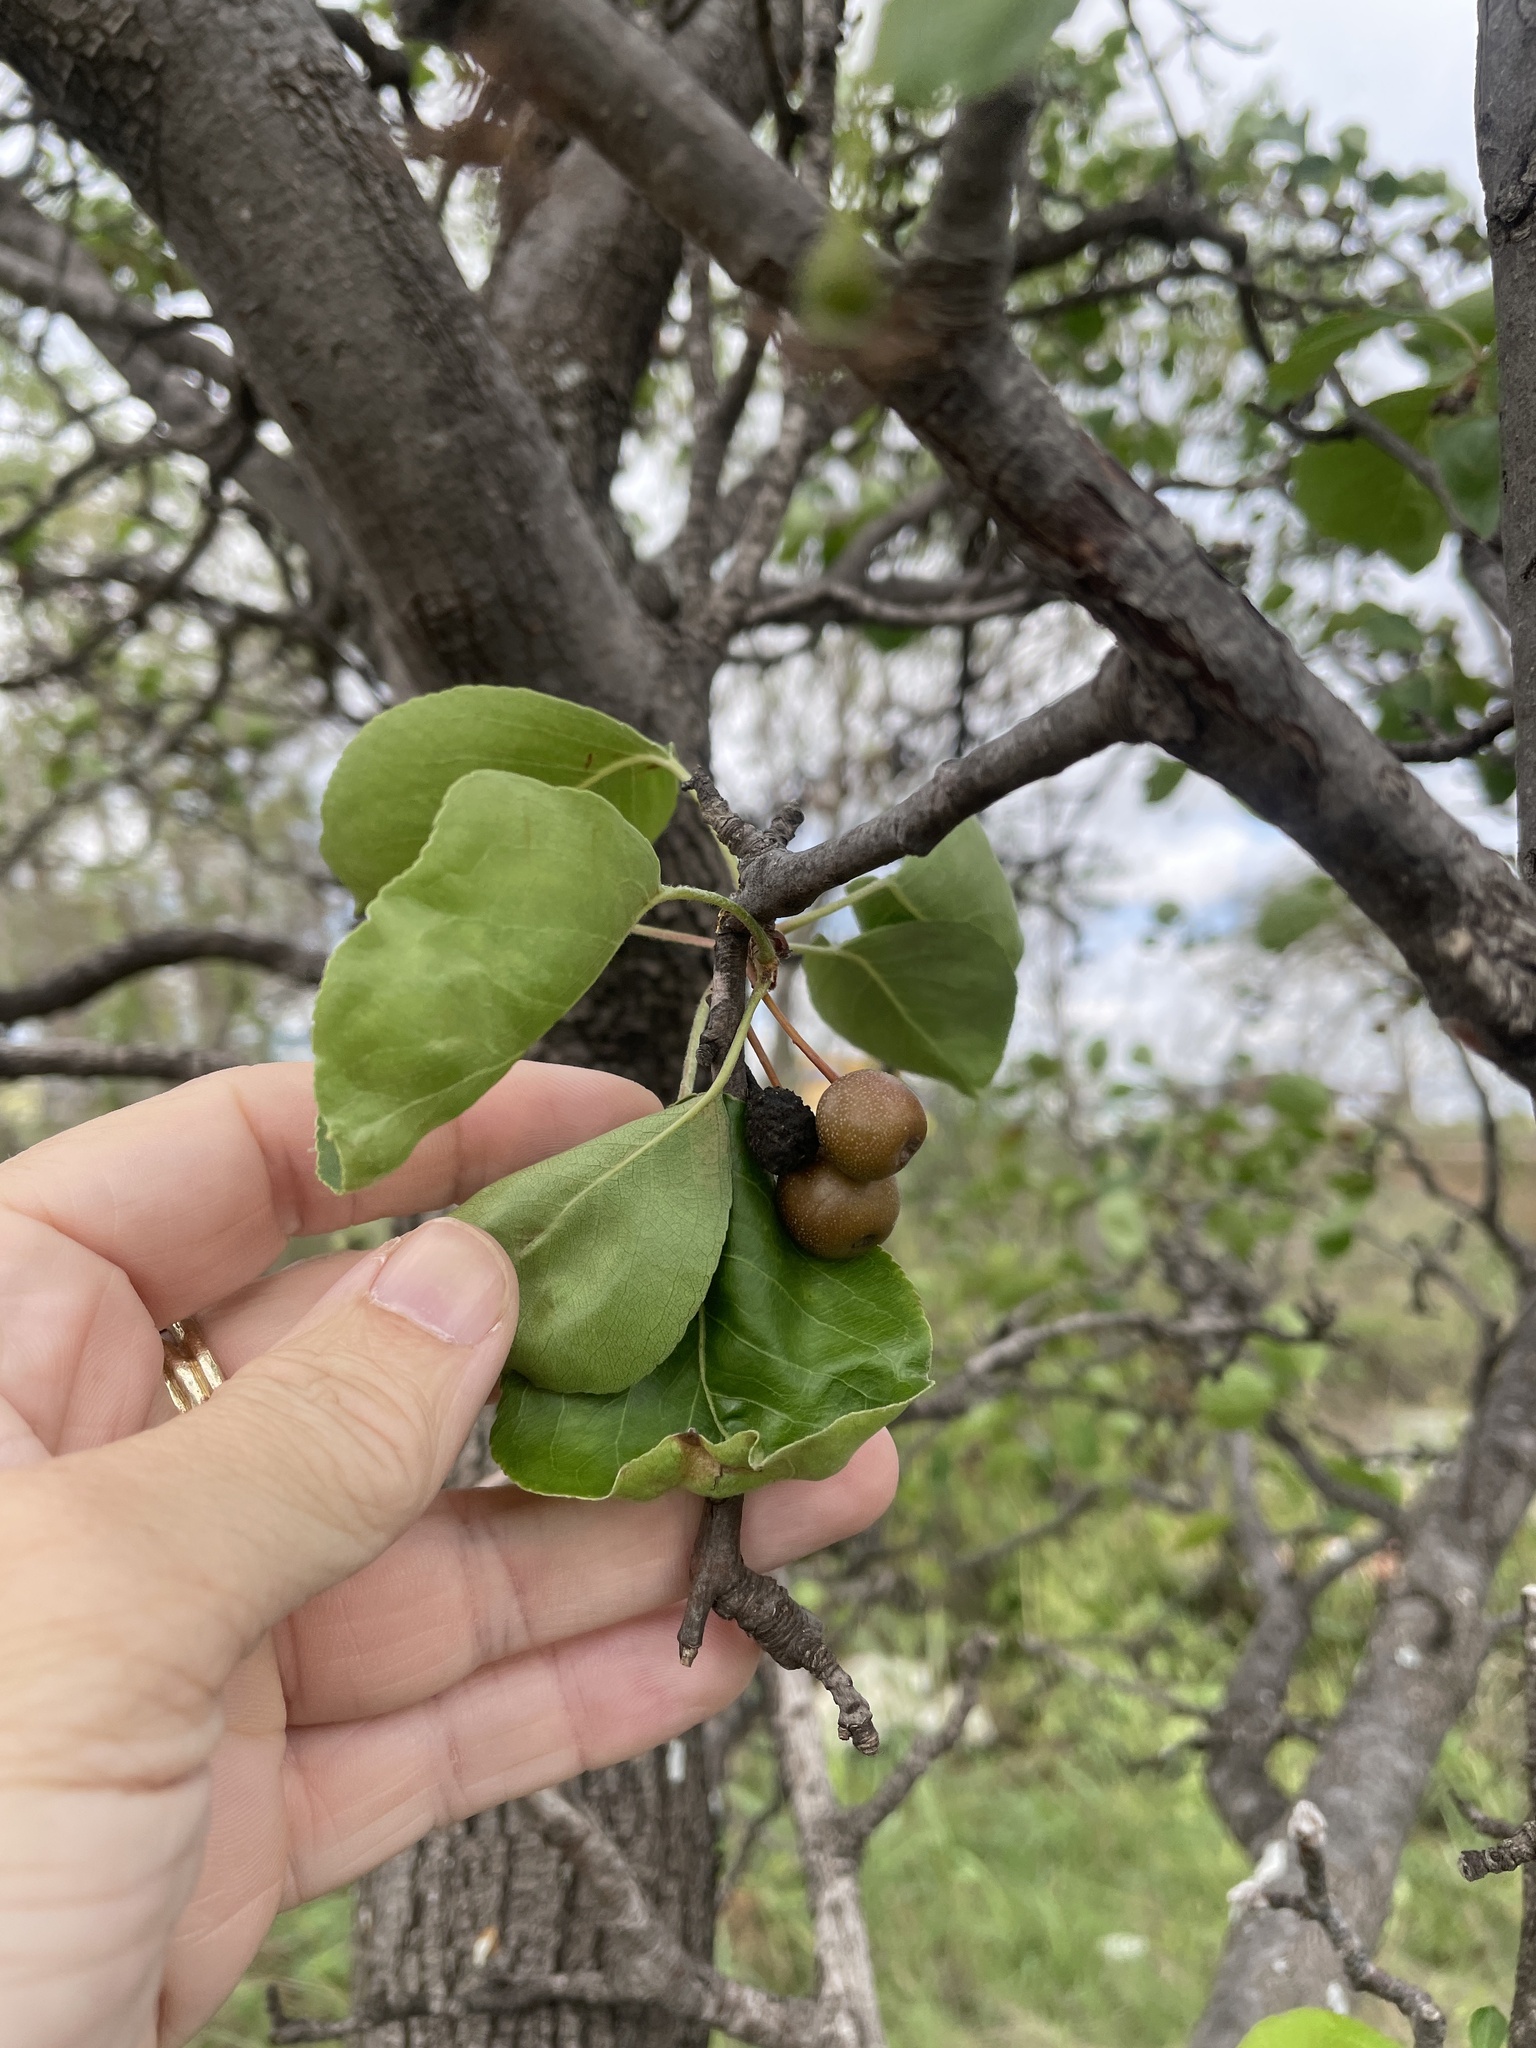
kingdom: Plantae
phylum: Tracheophyta
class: Magnoliopsida
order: Rosales
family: Rosaceae
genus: Pyrus
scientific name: Pyrus calleryana
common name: Callery pear
